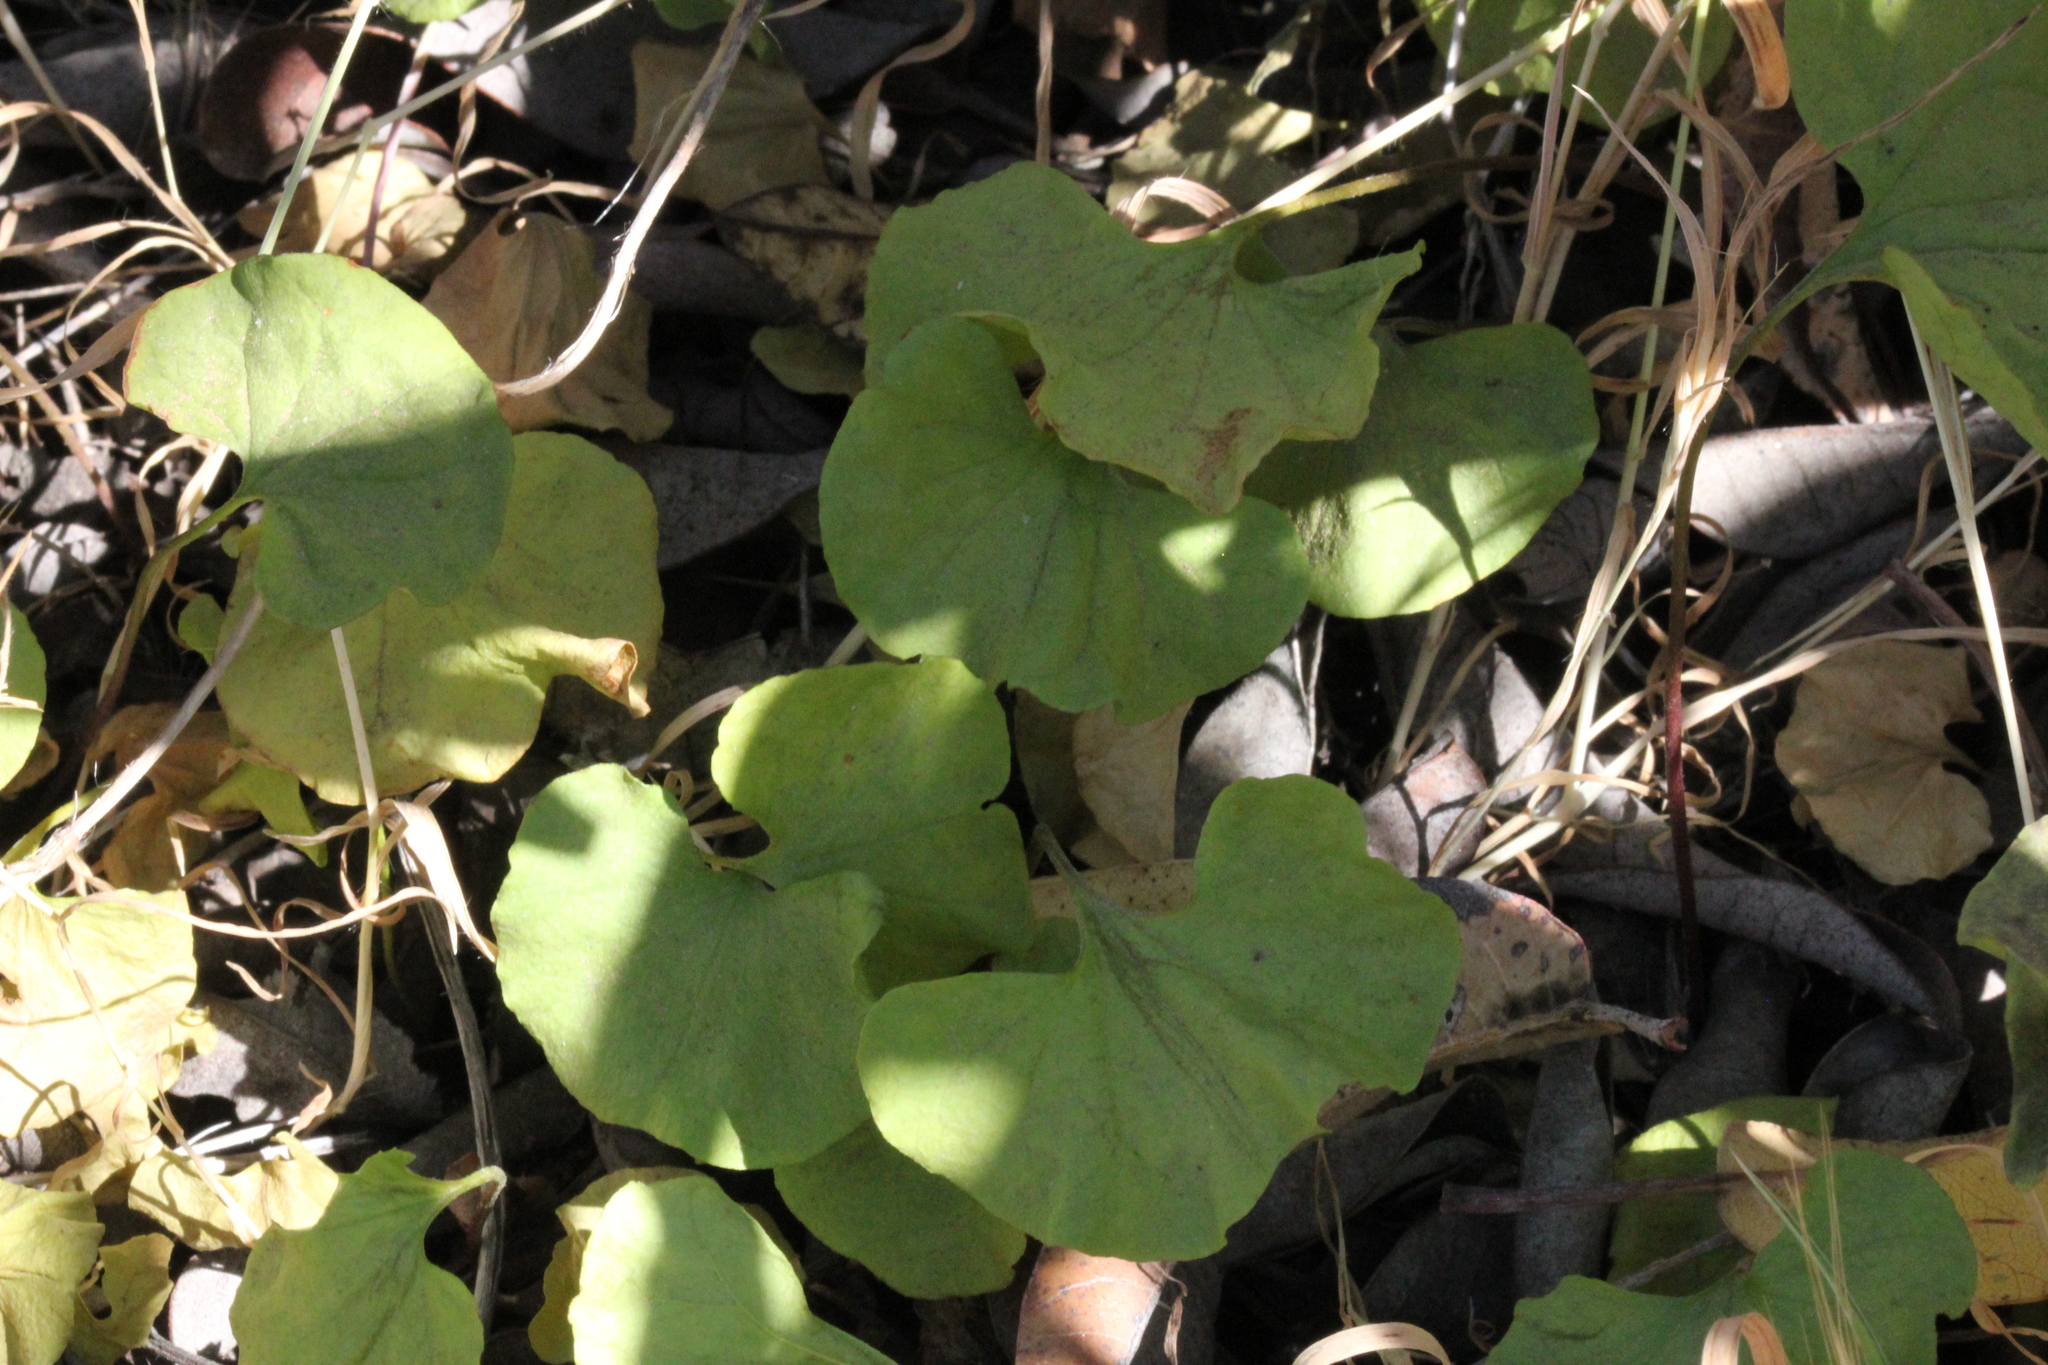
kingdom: Plantae
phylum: Tracheophyta
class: Magnoliopsida
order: Solanales
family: Convolvulaceae
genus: Dichondra
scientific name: Dichondra occidentalis
